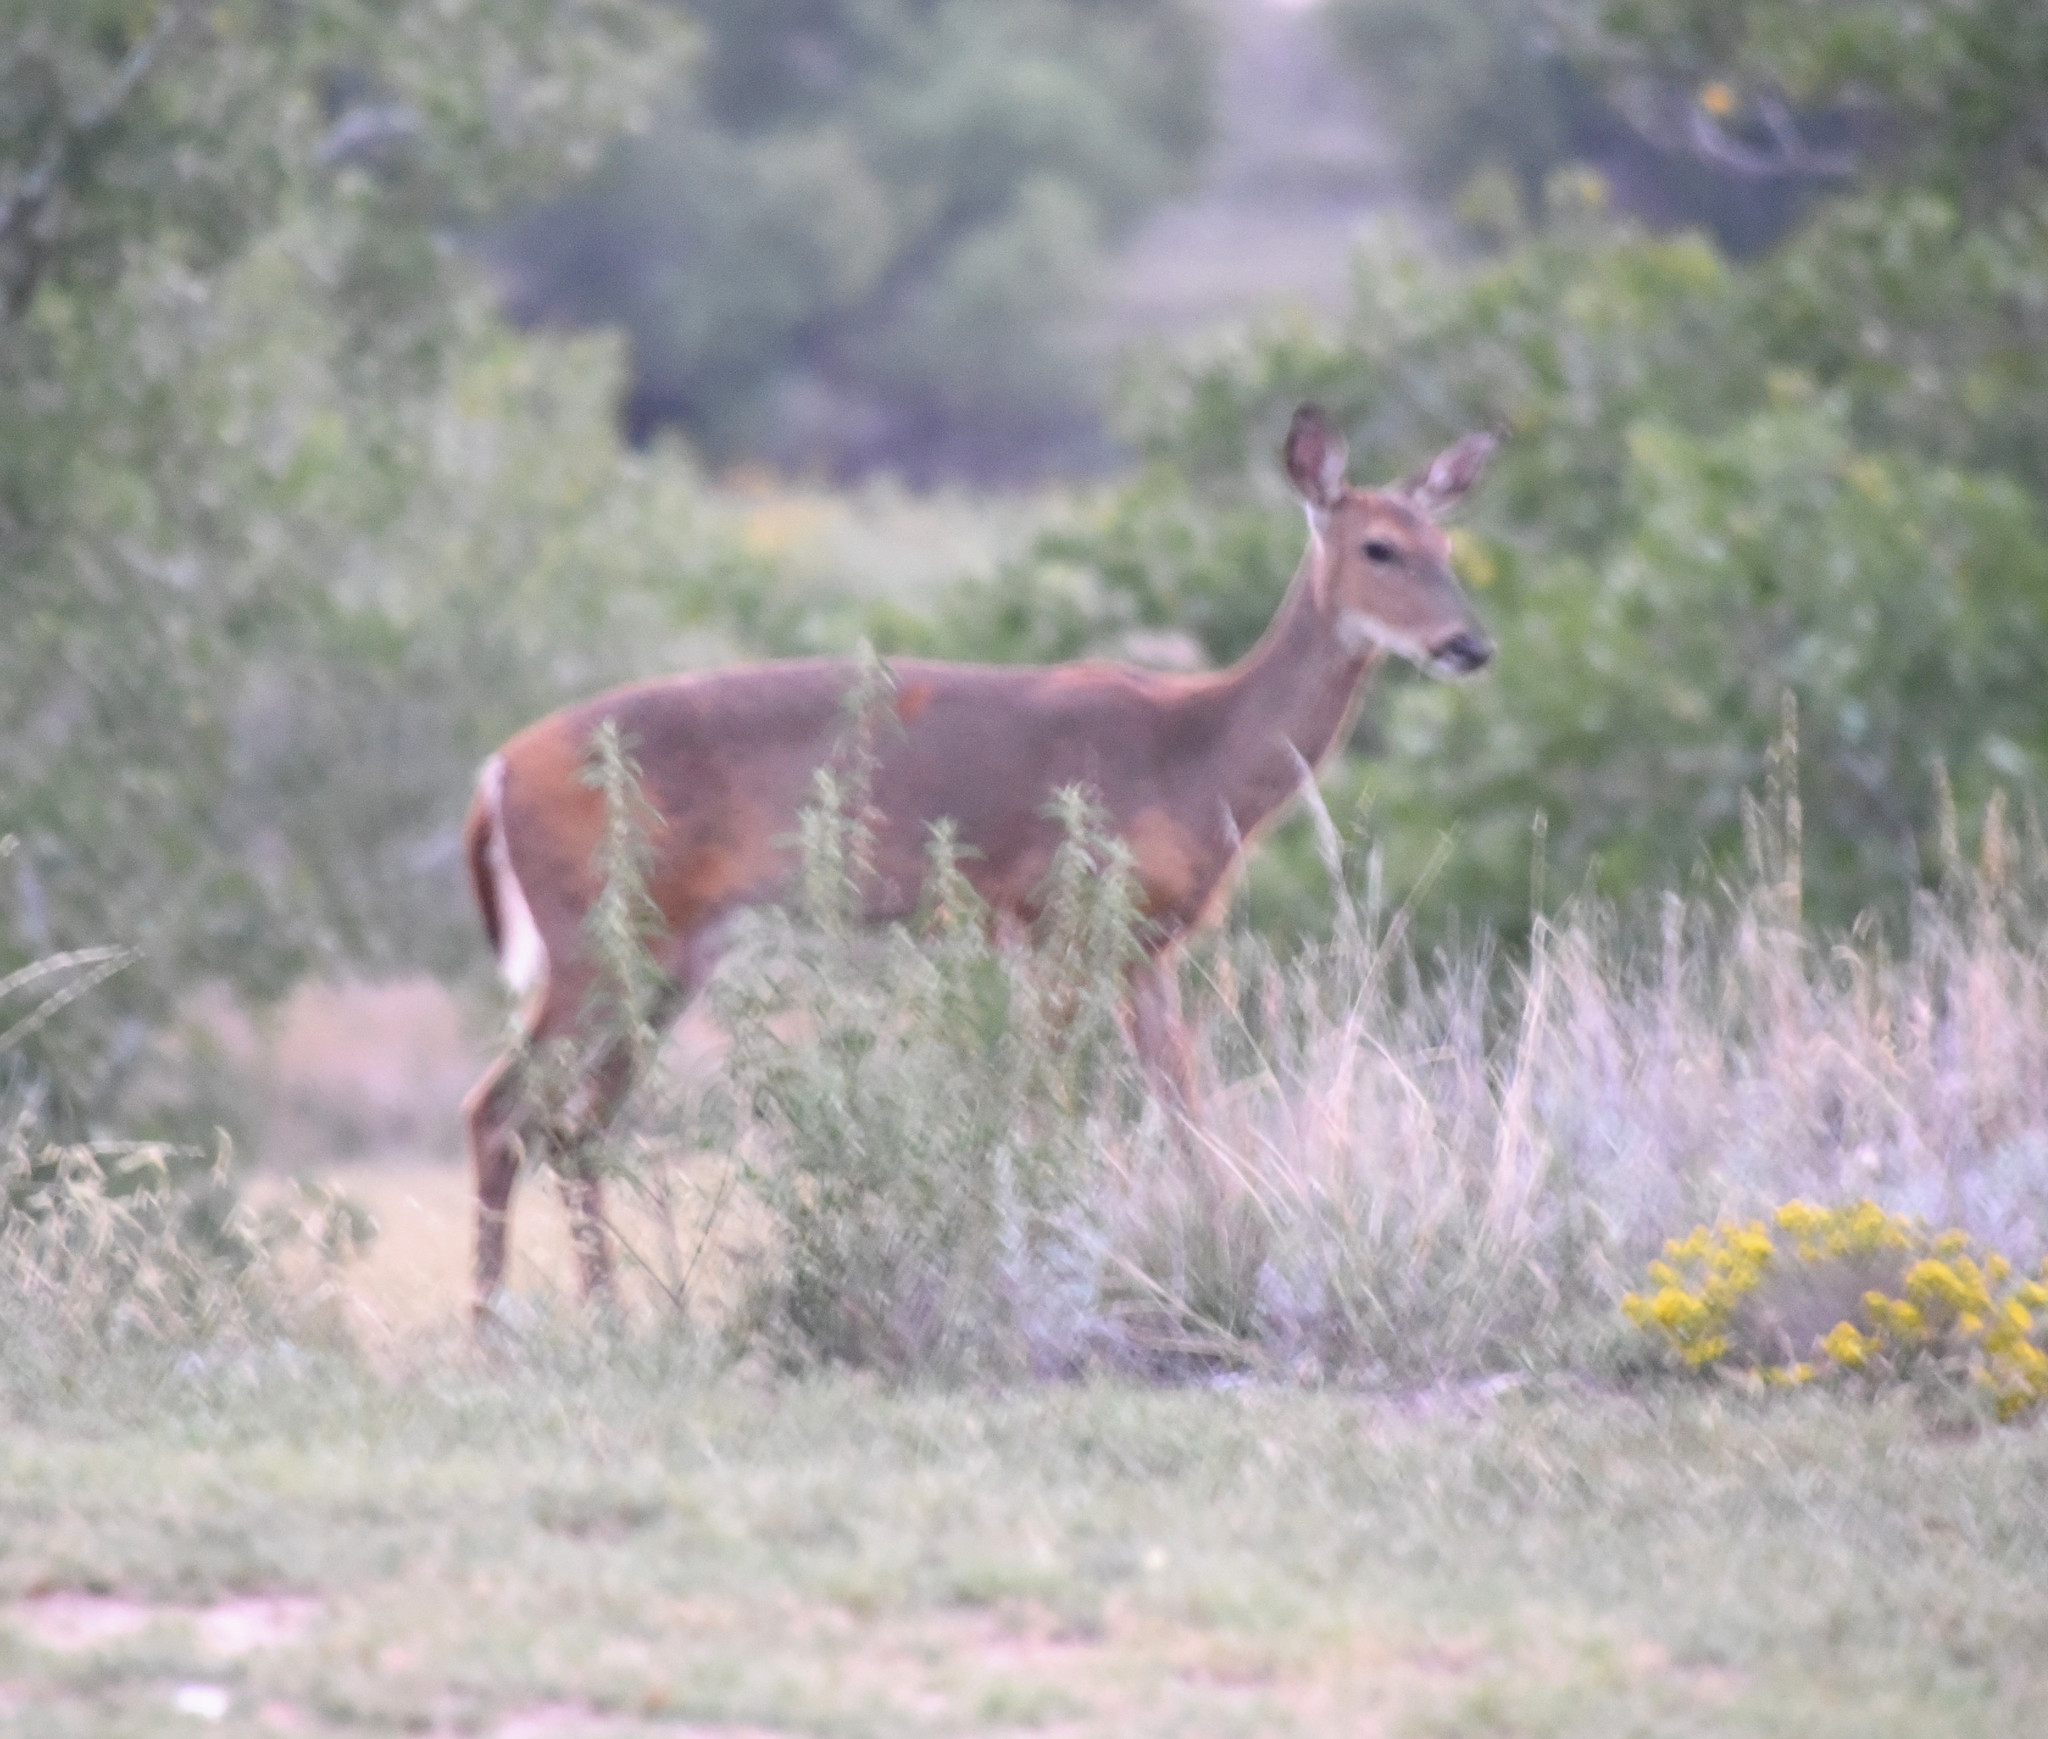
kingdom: Animalia
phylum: Chordata
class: Mammalia
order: Artiodactyla
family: Cervidae
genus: Odocoileus
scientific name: Odocoileus virginianus
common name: White-tailed deer
